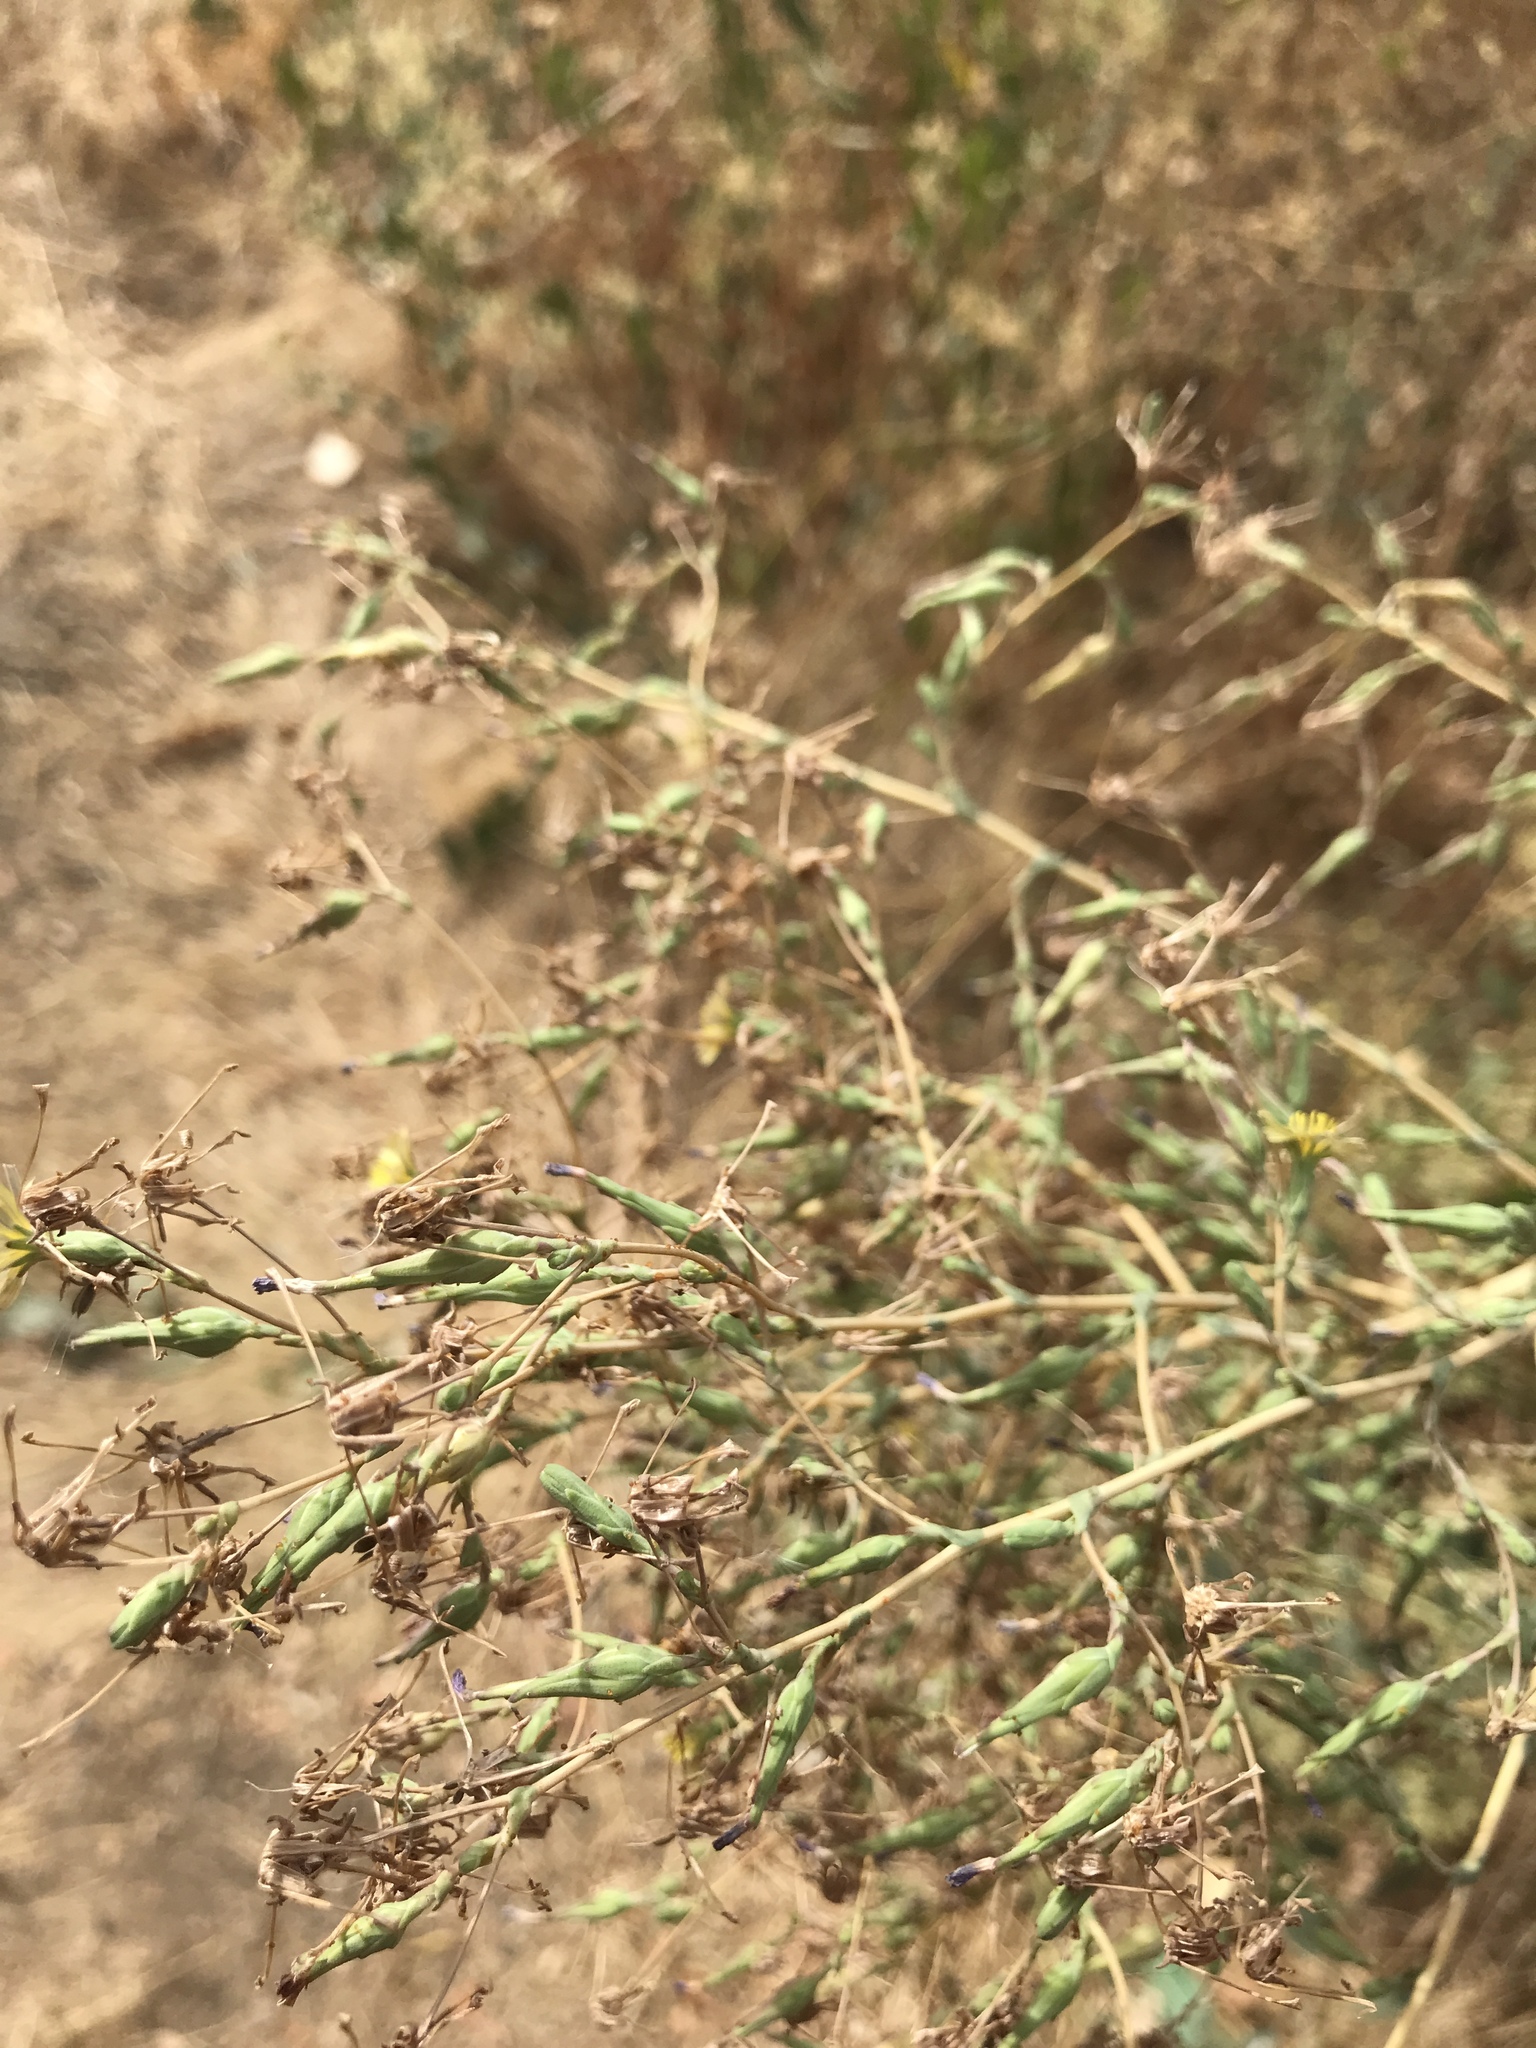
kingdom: Plantae
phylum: Tracheophyta
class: Magnoliopsida
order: Asterales
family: Asteraceae
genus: Lactuca
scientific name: Lactuca serriola
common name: Prickly lettuce
